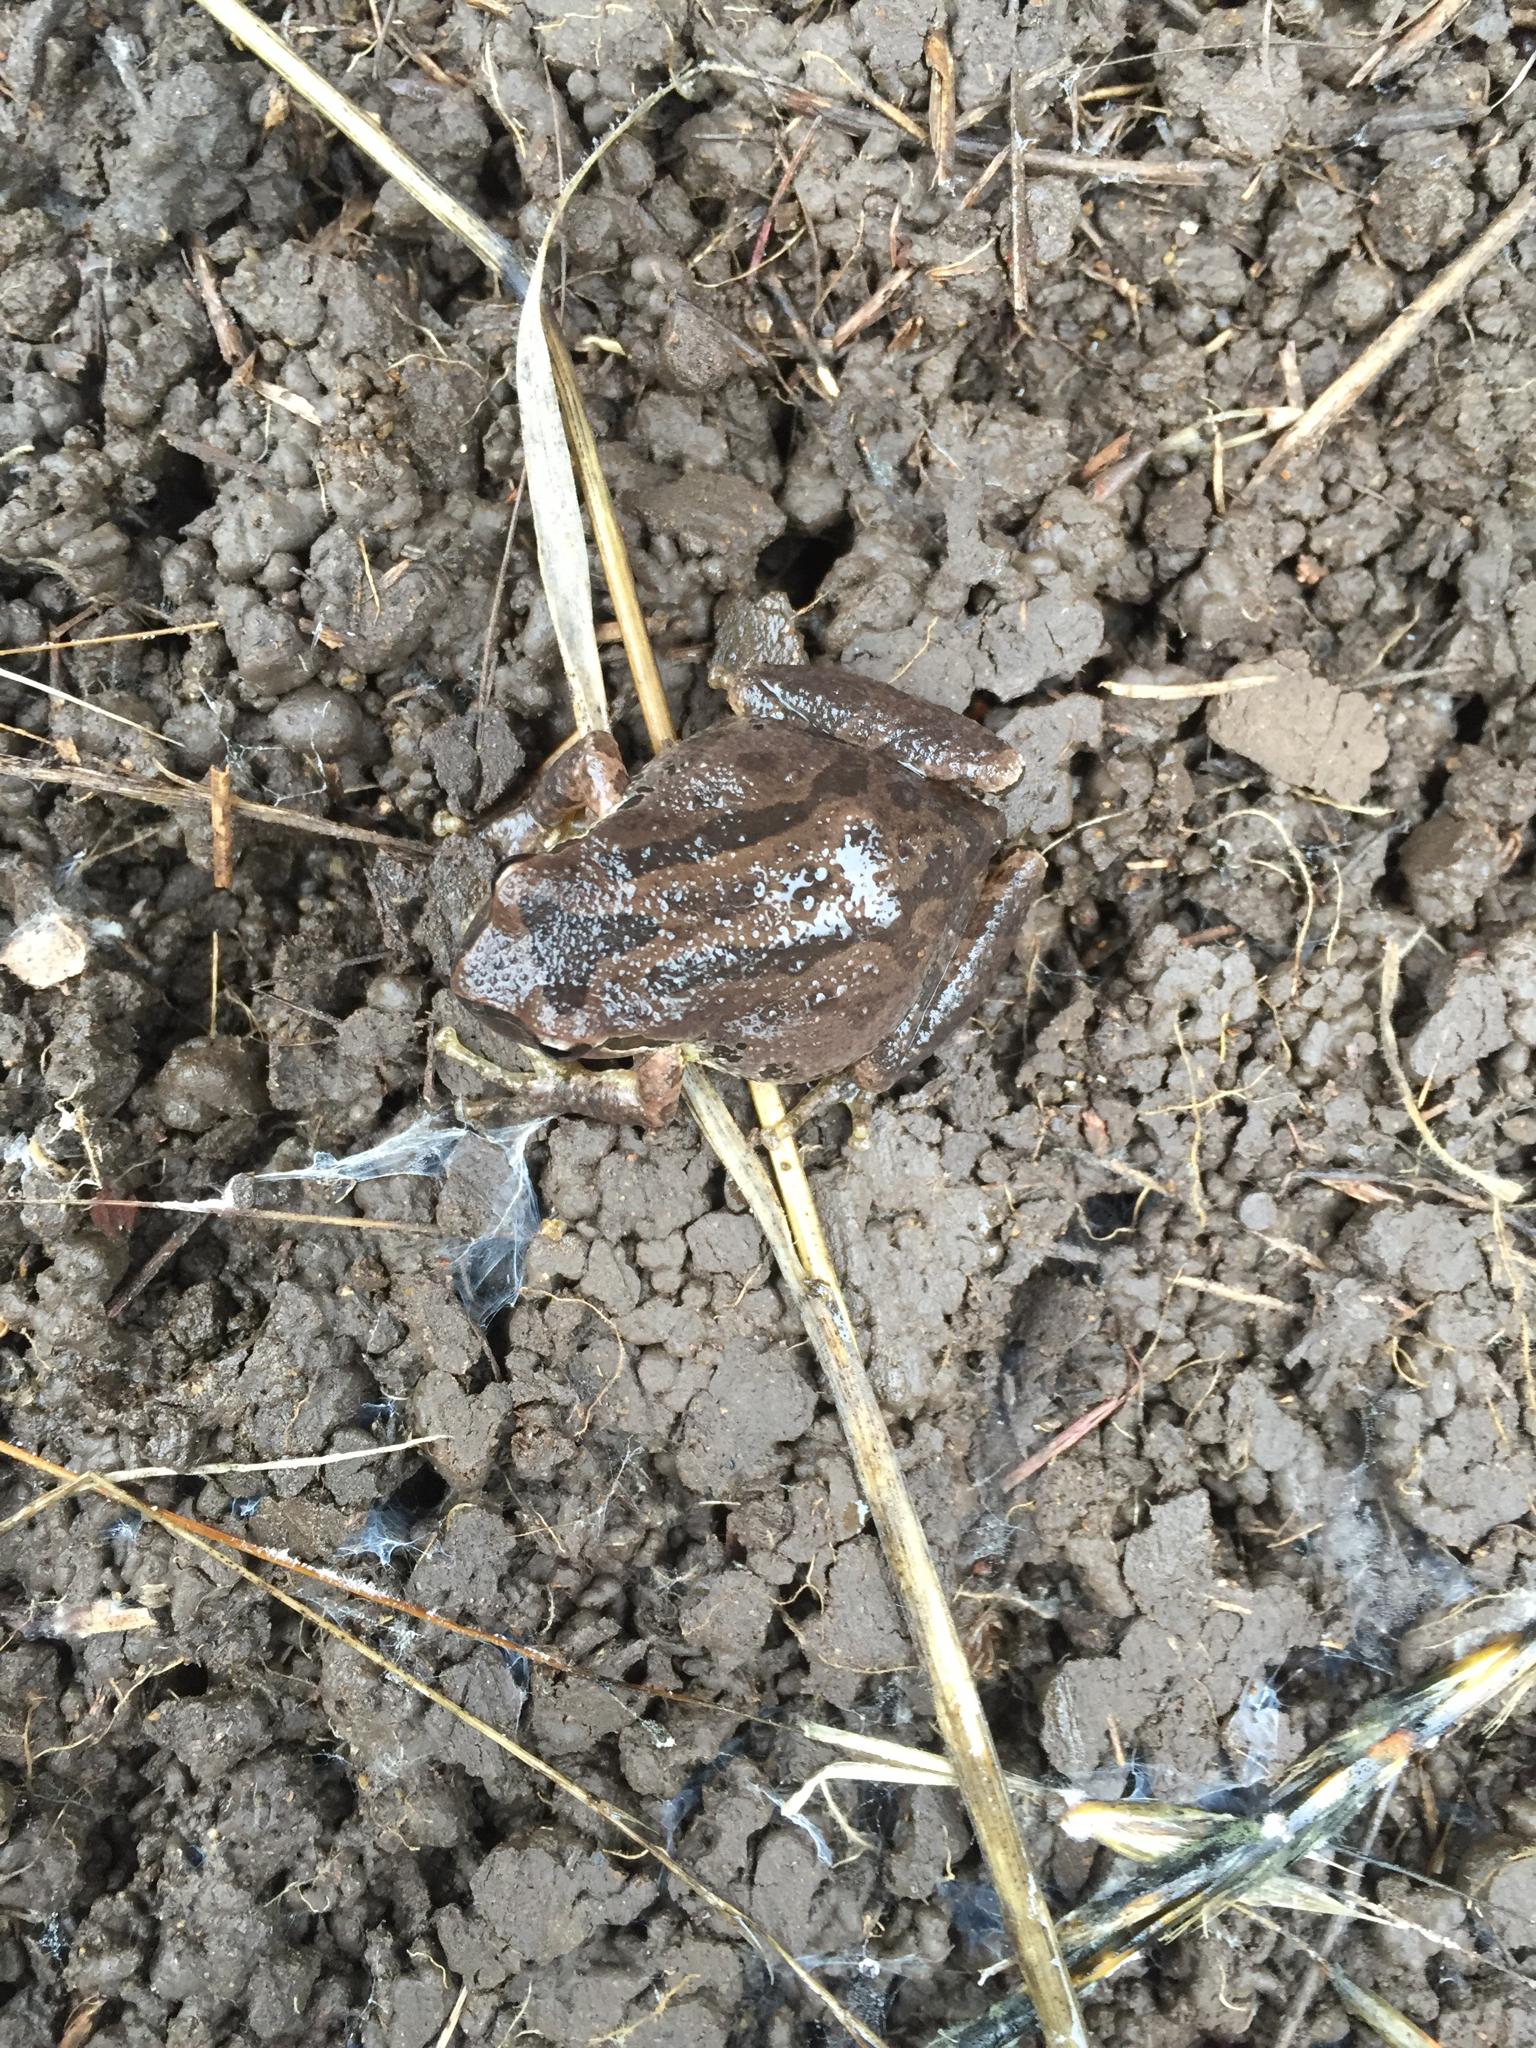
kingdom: Animalia
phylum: Chordata
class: Amphibia
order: Anura
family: Hylidae
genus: Pseudacris
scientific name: Pseudacris regilla
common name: Pacific chorus frog
